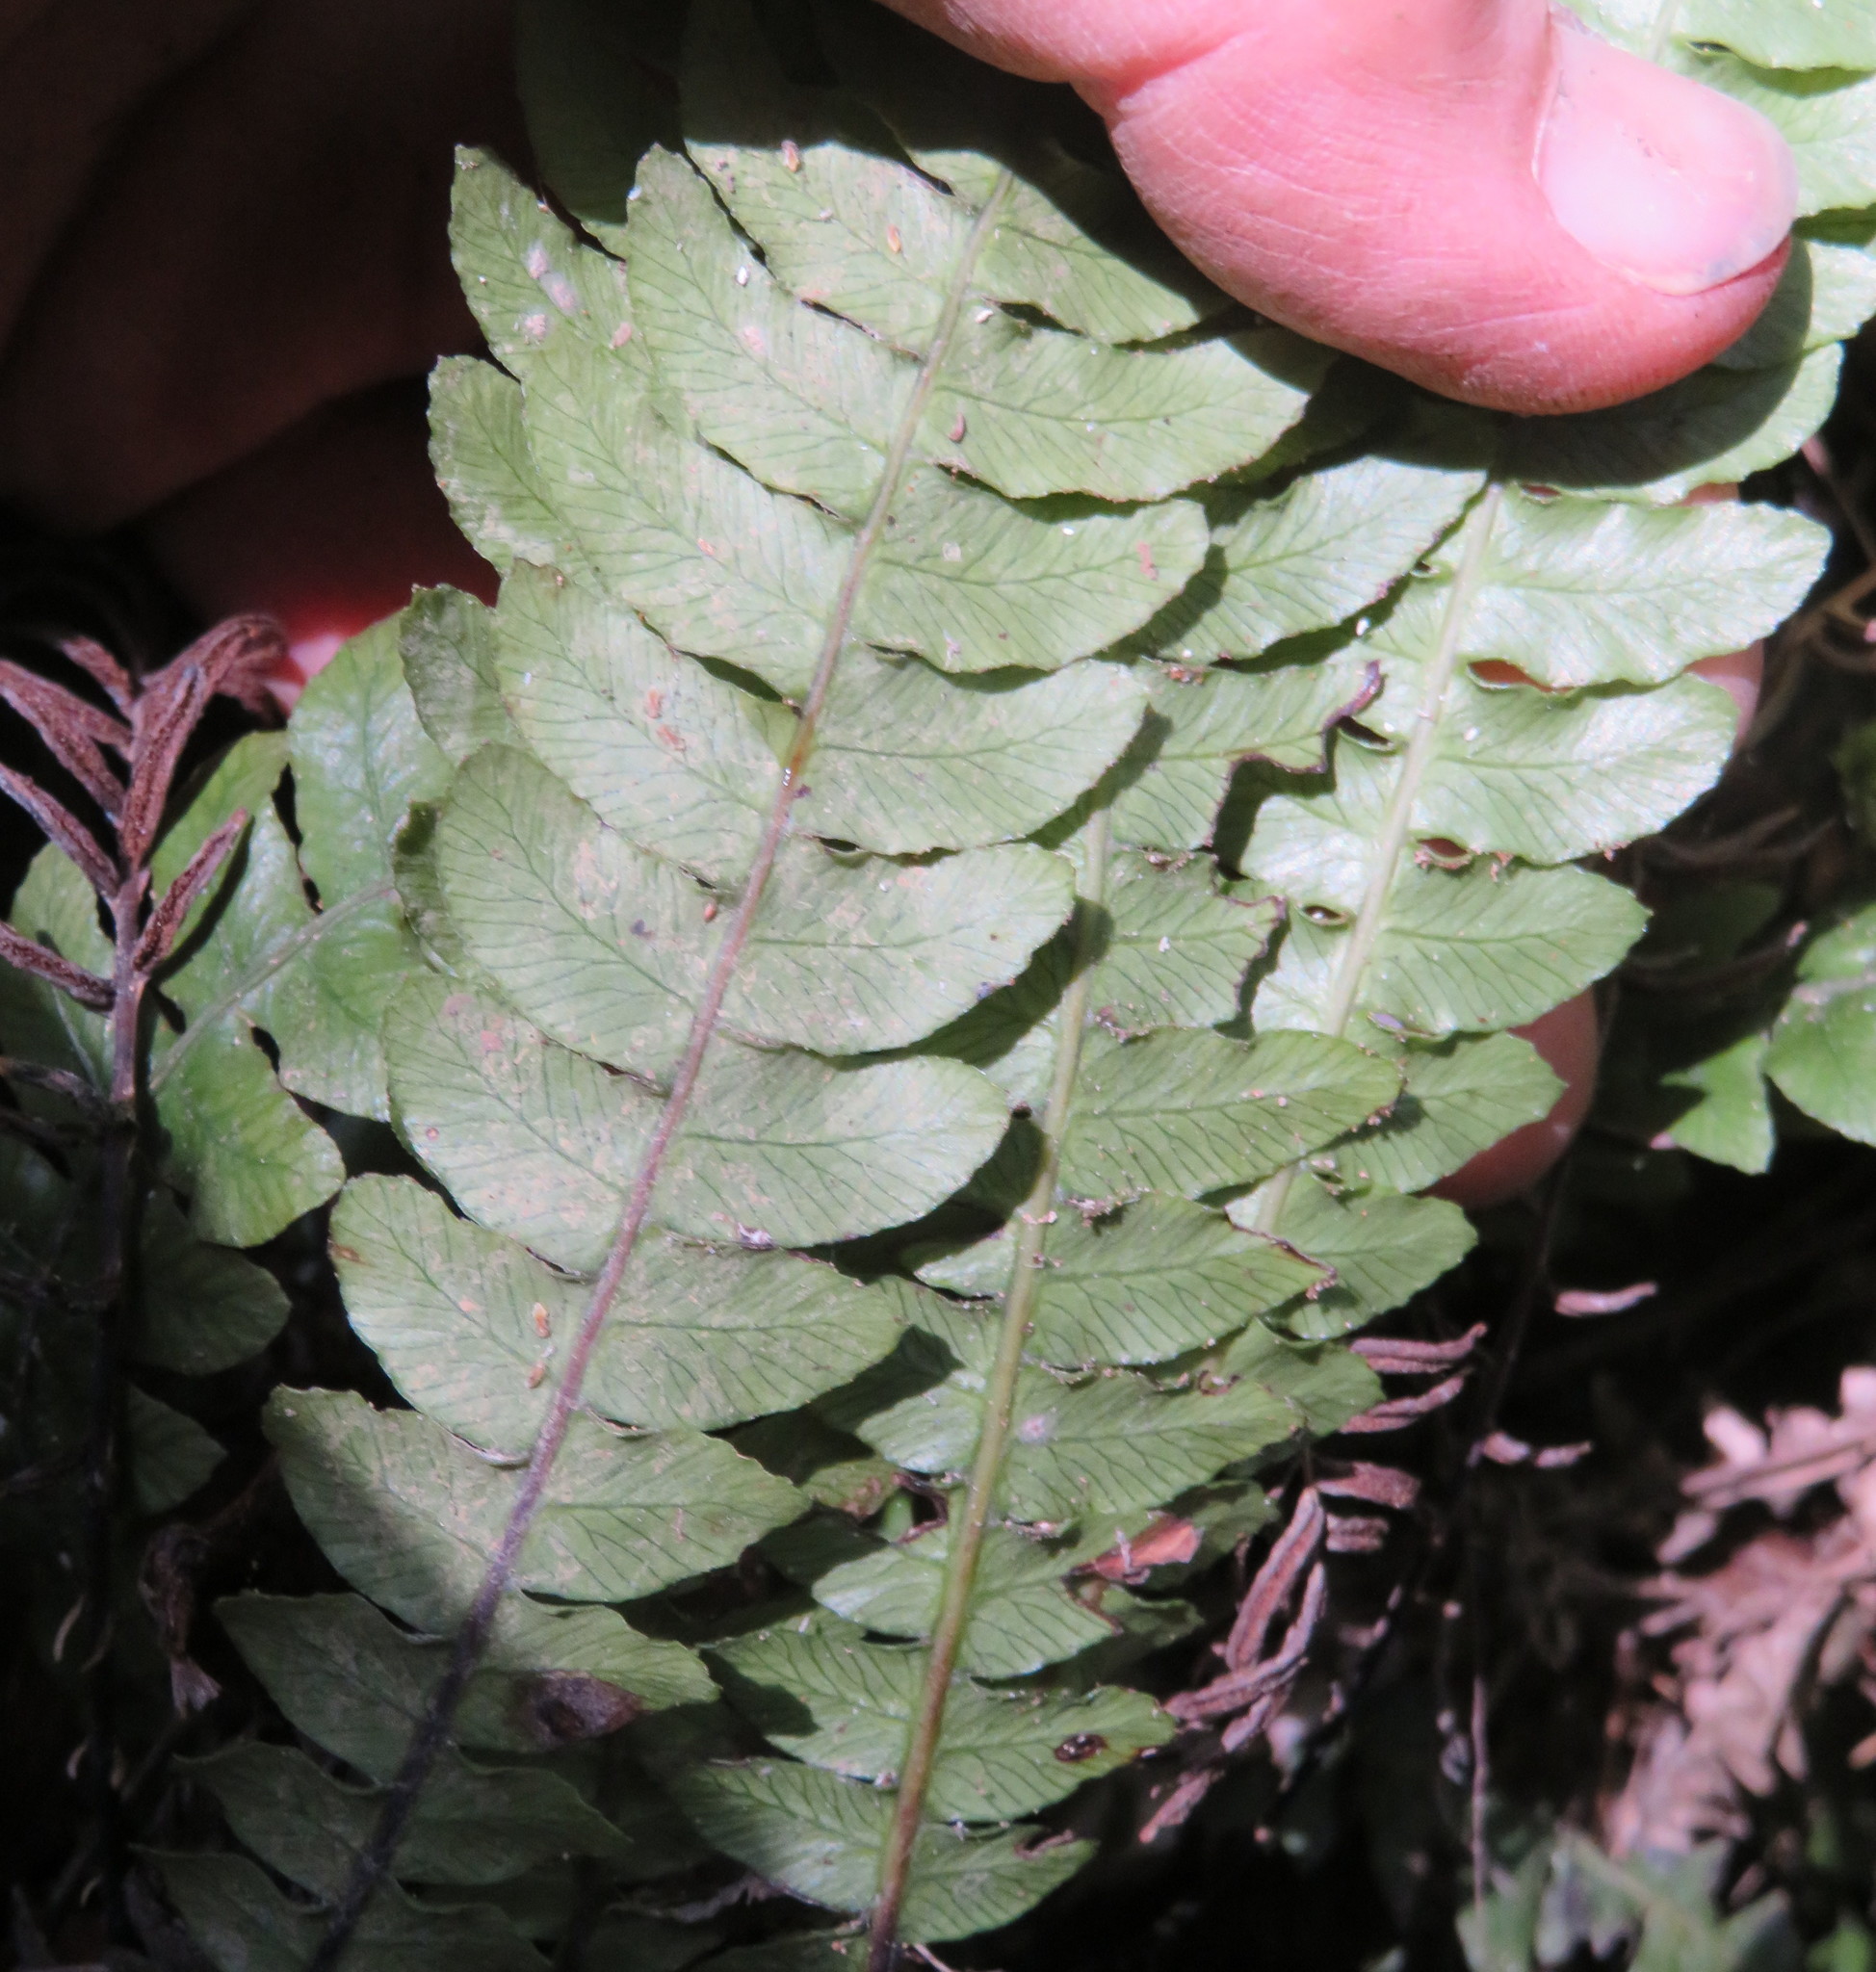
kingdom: Plantae
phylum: Tracheophyta
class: Polypodiopsida
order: Polypodiales
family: Blechnaceae
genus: Austroblechnum
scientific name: Austroblechnum lanceolatum
